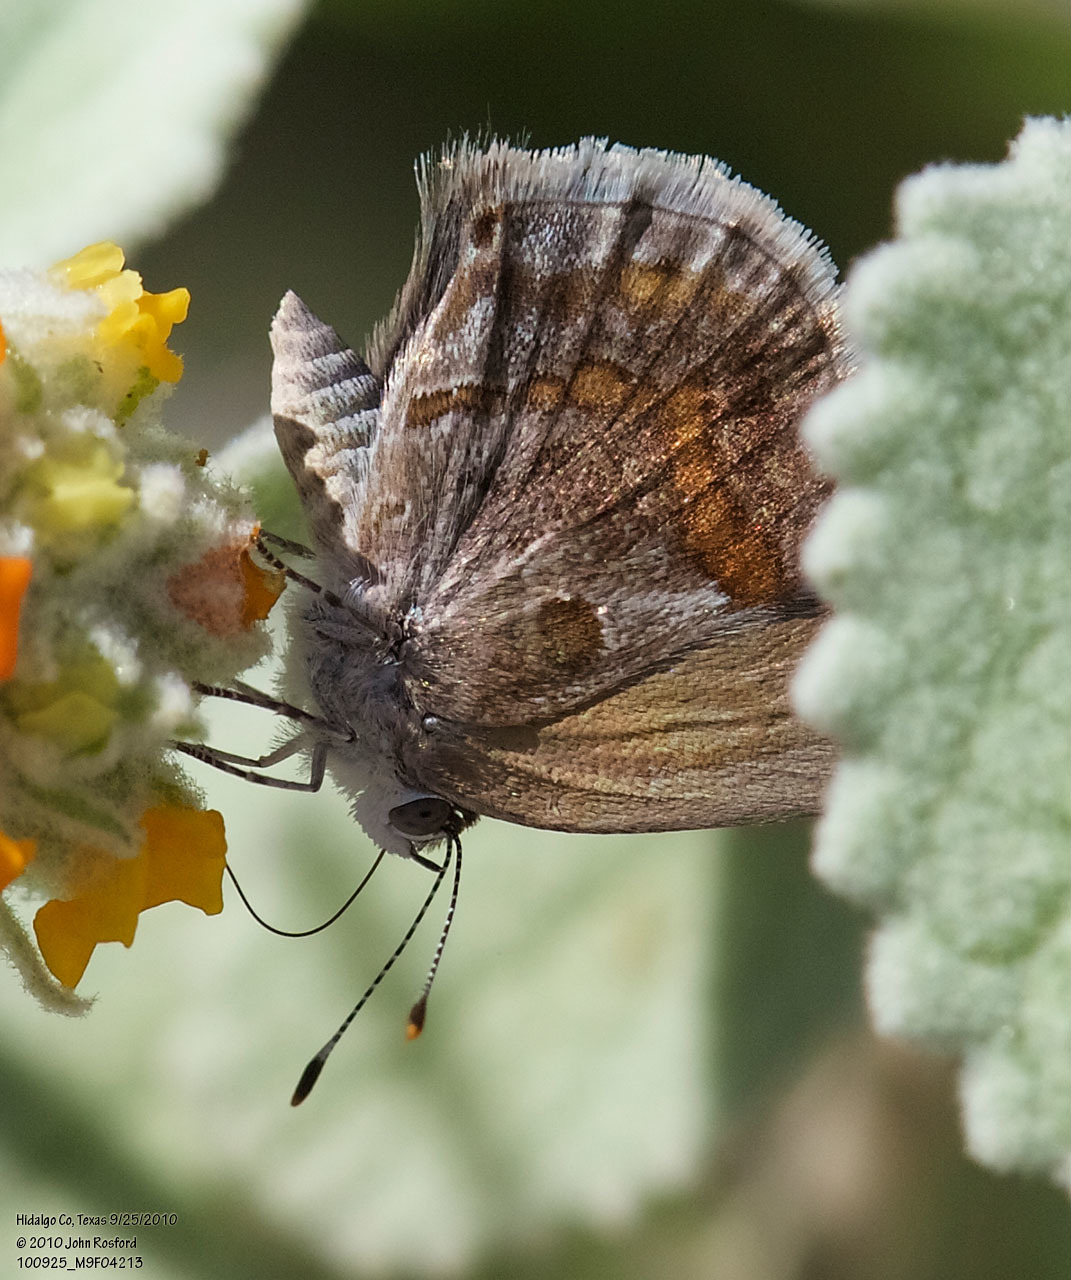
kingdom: Animalia
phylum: Arthropoda
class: Insecta
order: Lepidoptera
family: Lycaenidae
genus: Strymon
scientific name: Strymon bazochii
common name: Lantana scrub-hairstreak
